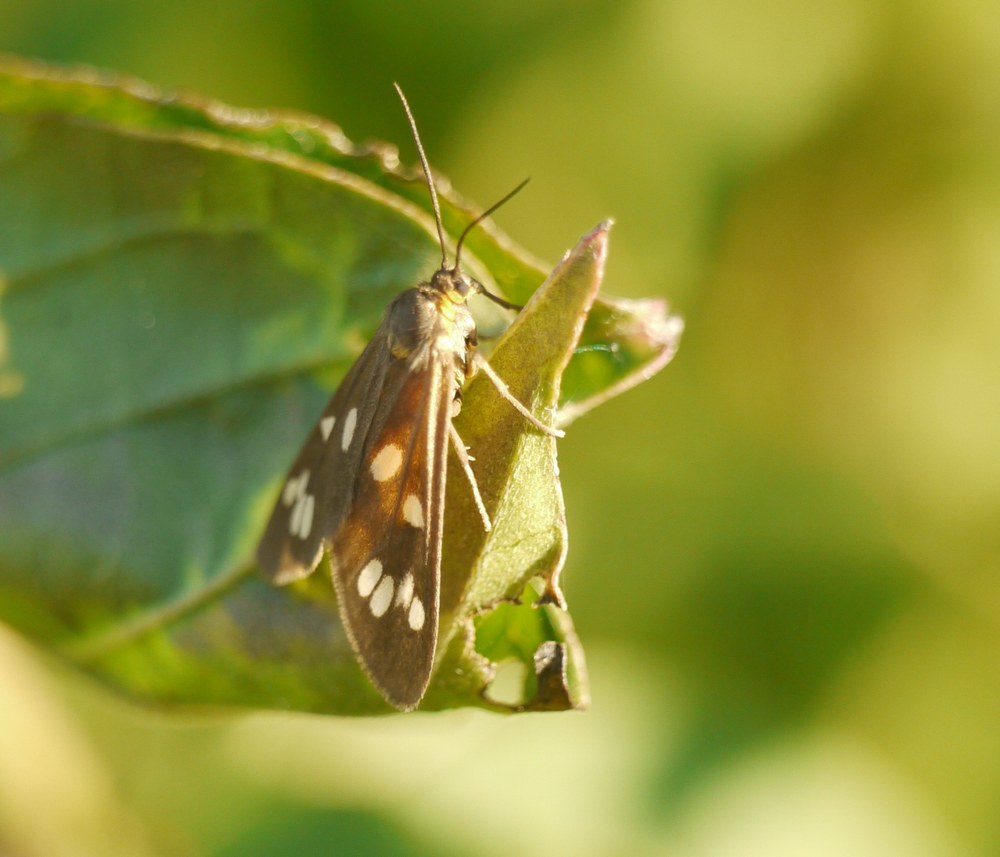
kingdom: Animalia
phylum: Arthropoda
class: Insecta
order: Lepidoptera
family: Erebidae
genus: Dysauxes
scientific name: Dysauxes punctata
